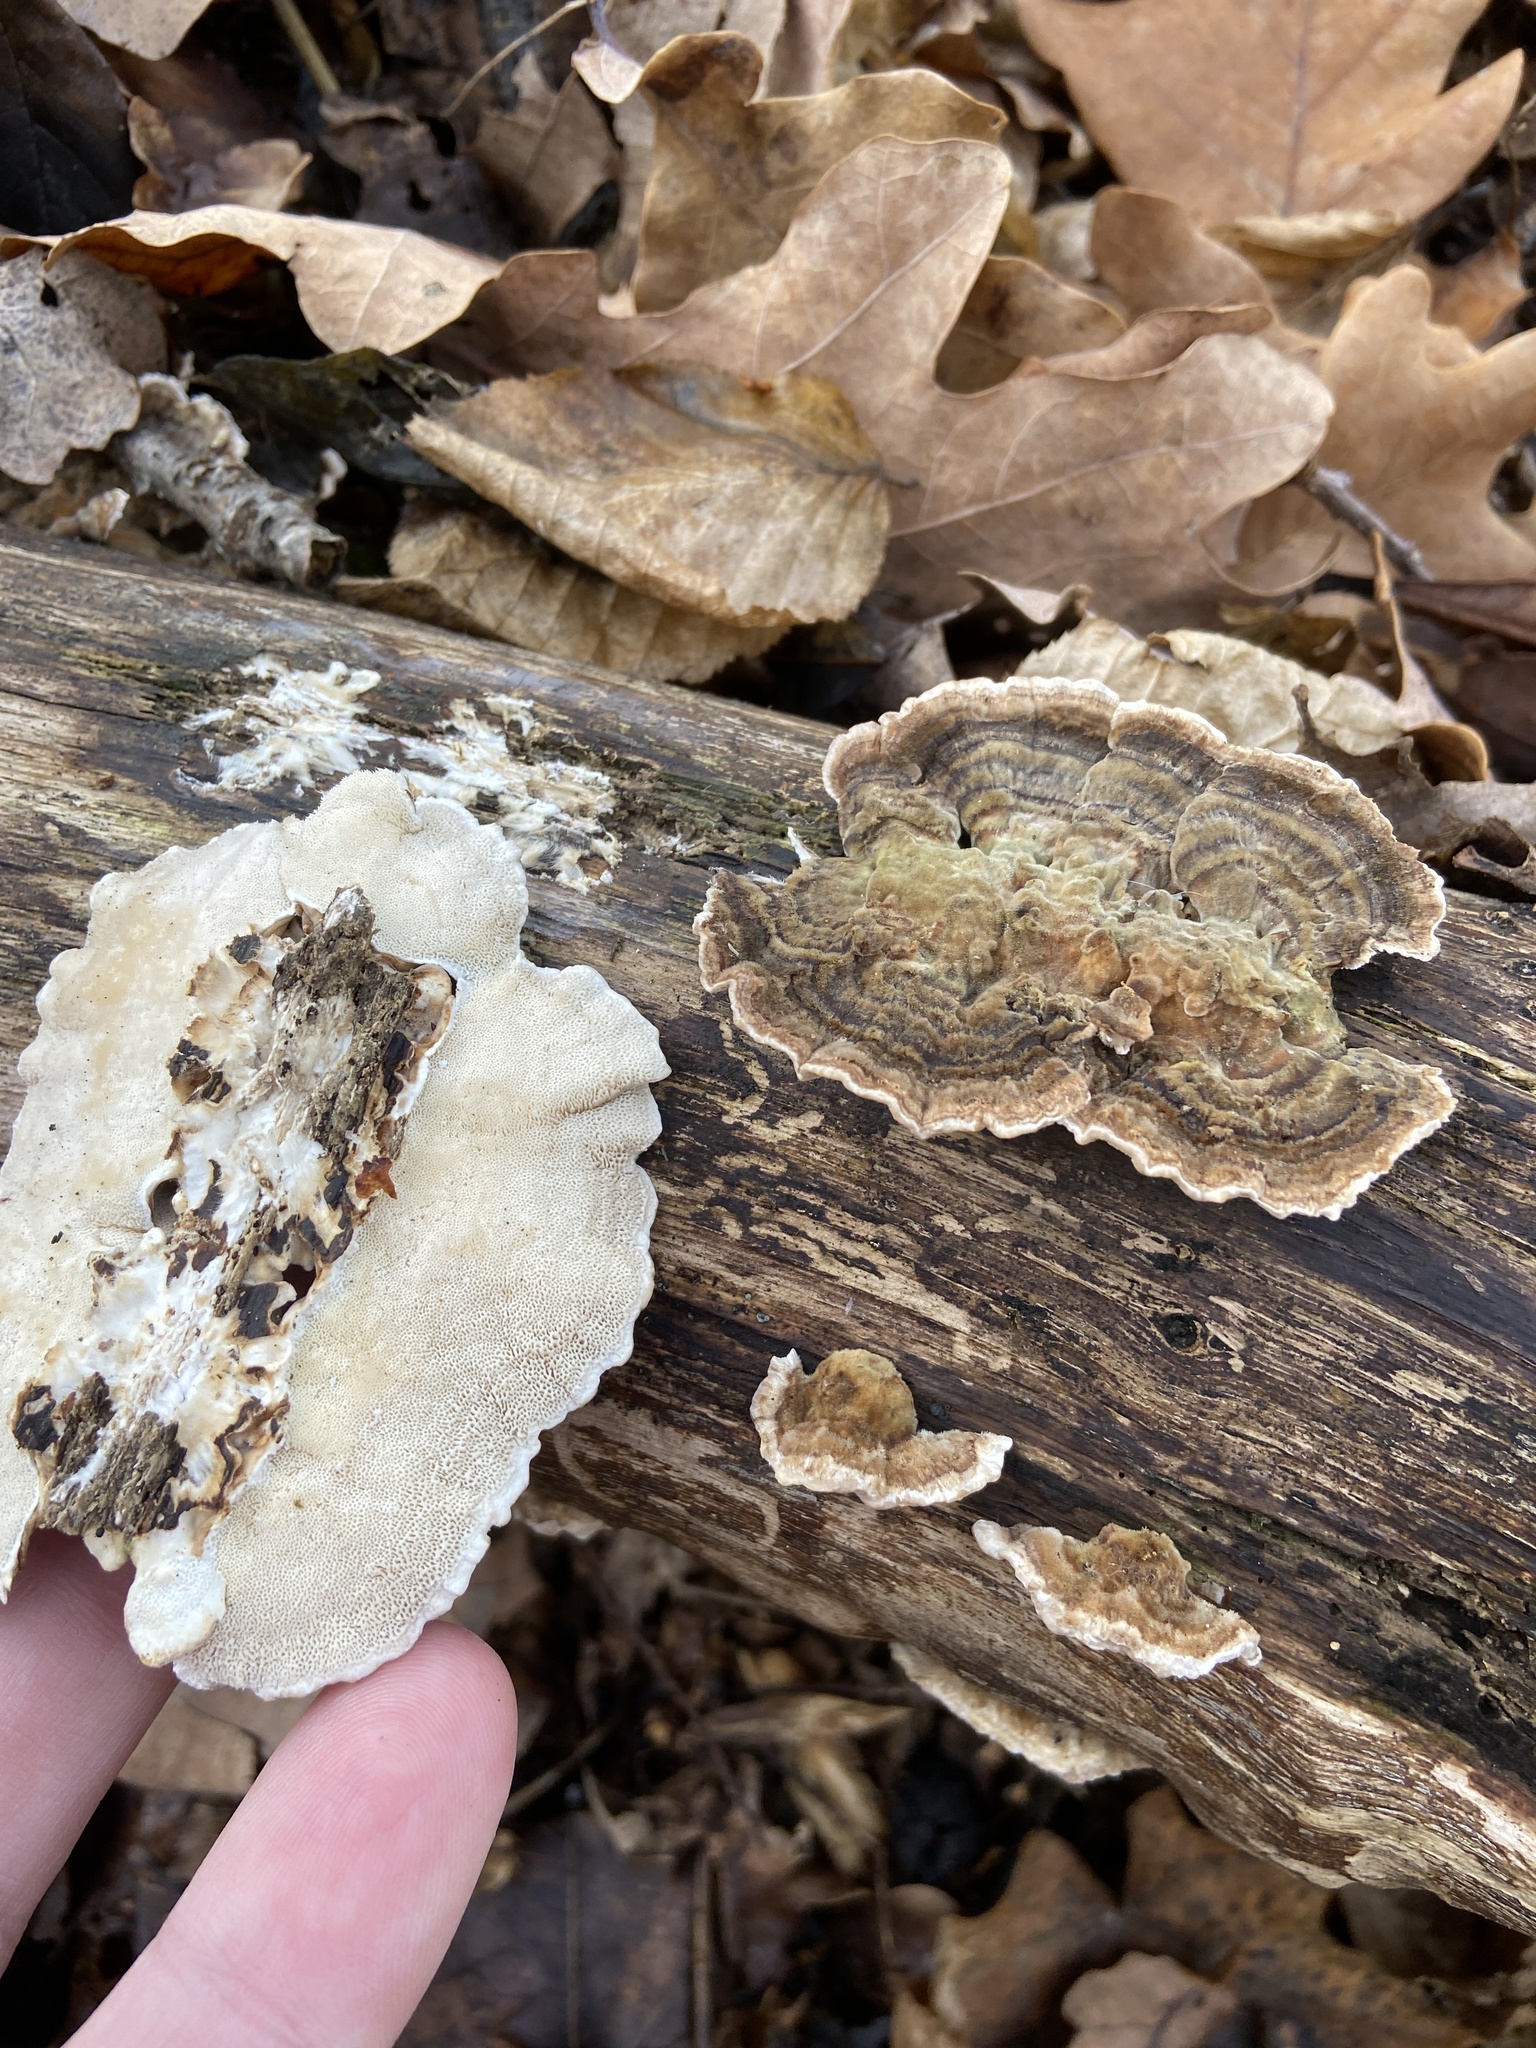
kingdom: Fungi
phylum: Basidiomycota
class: Agaricomycetes
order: Polyporales
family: Polyporaceae
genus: Trametes
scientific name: Trametes versicolor
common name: Turkeytail
